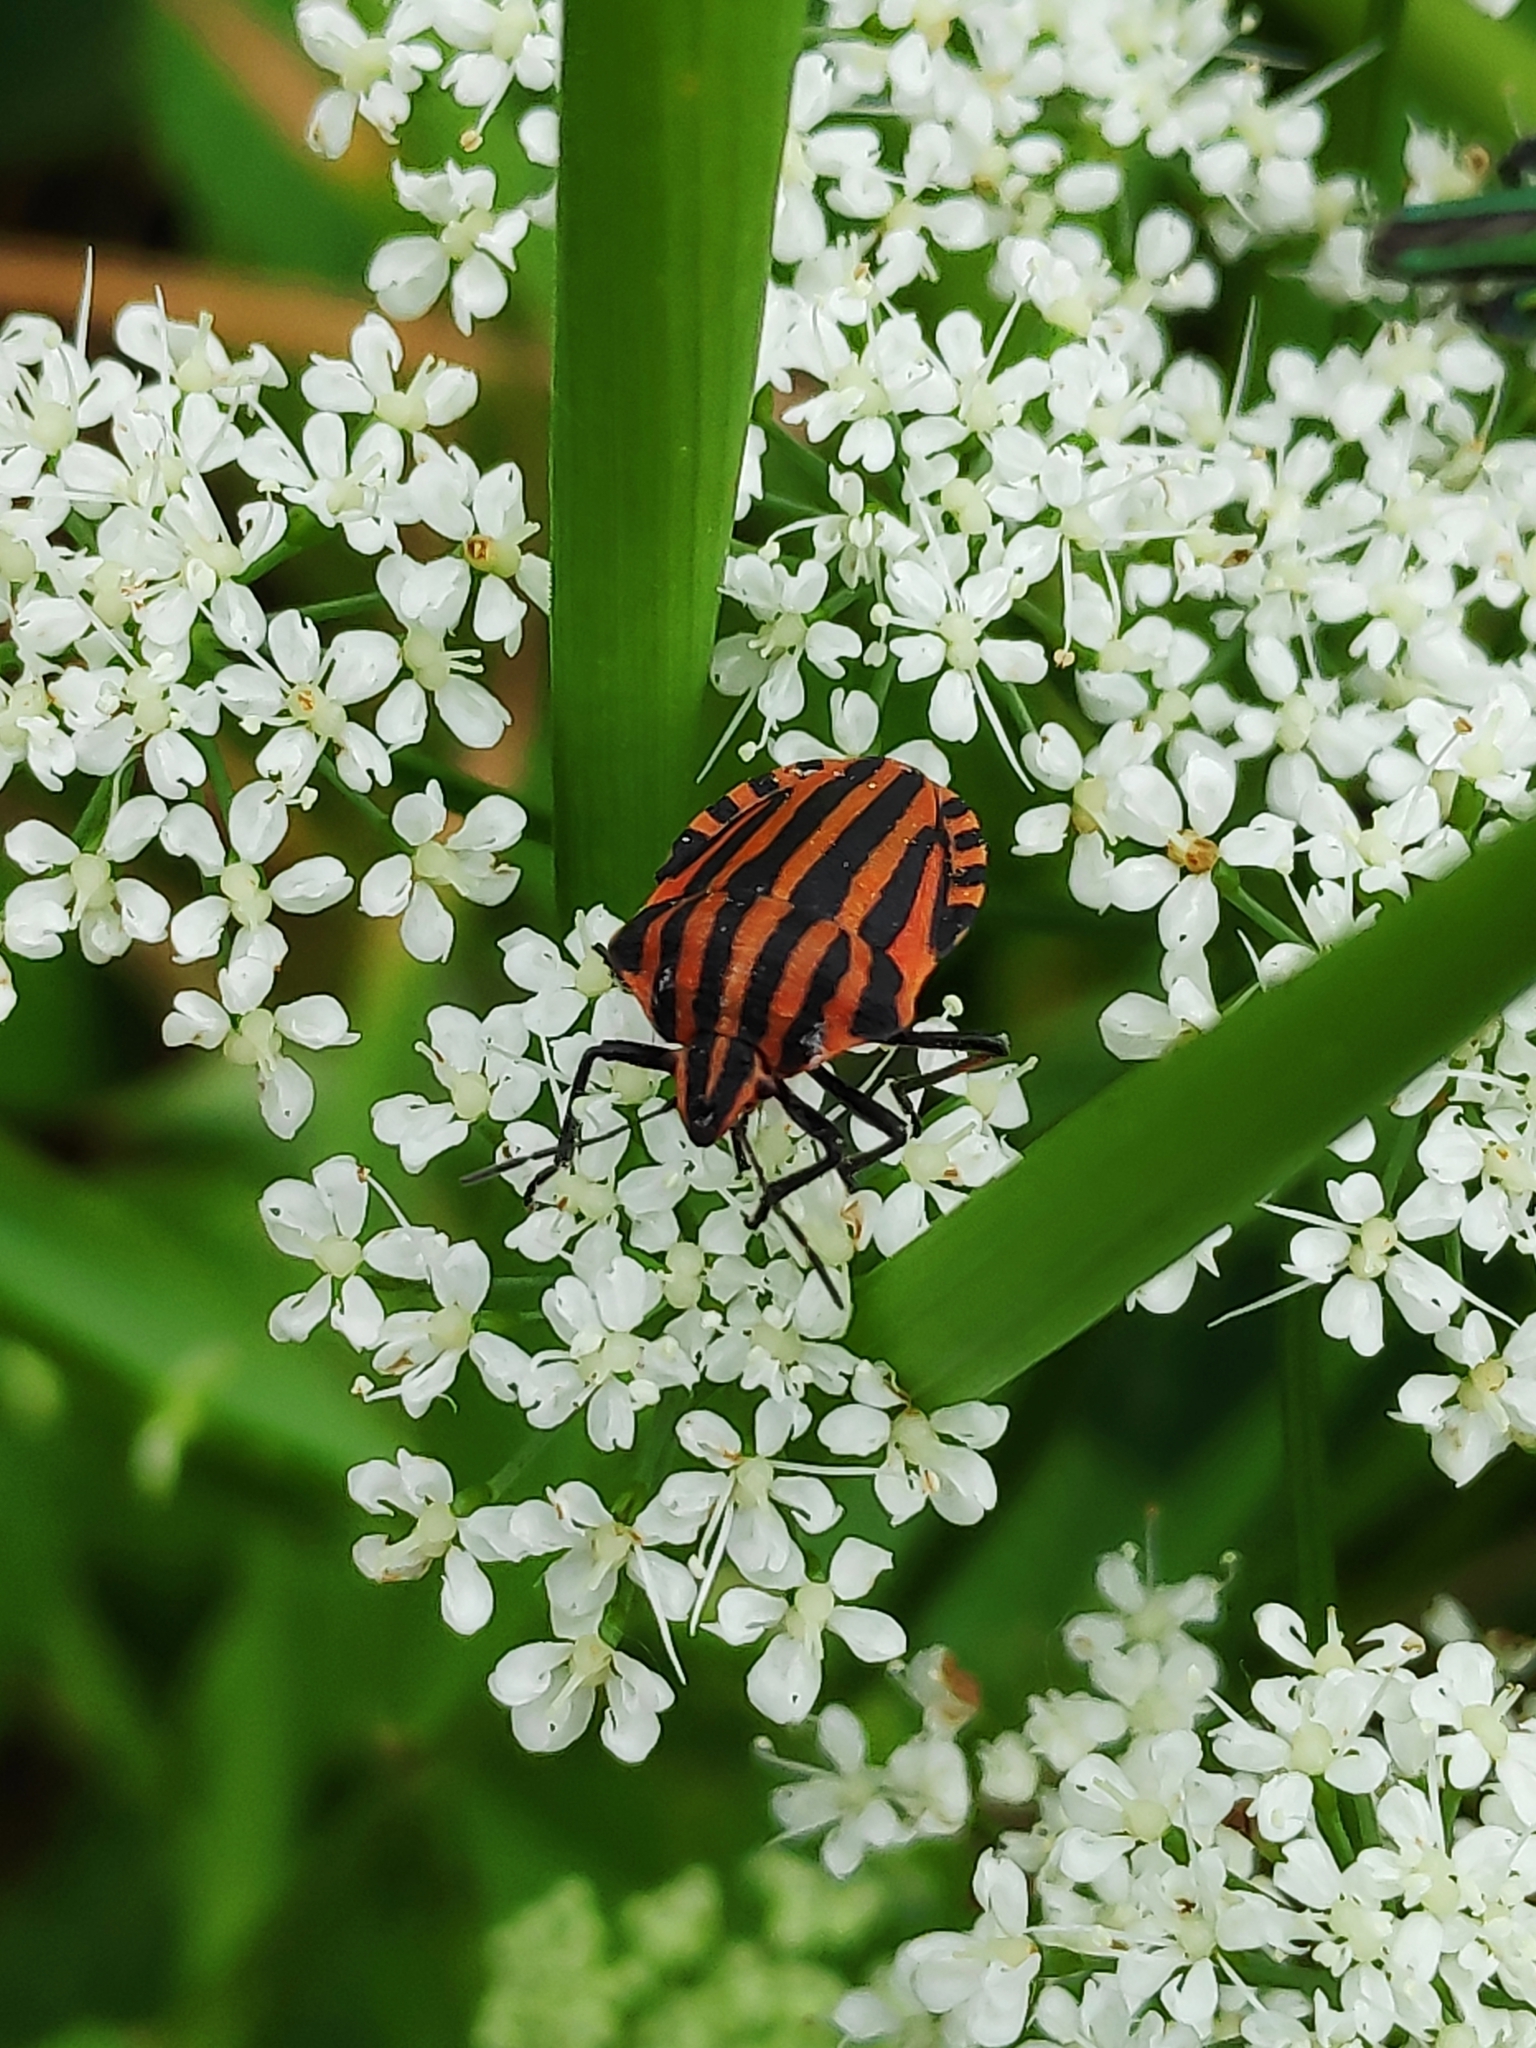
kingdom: Animalia
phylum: Arthropoda
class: Insecta
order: Hemiptera
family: Pentatomidae
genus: Graphosoma
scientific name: Graphosoma italicum
